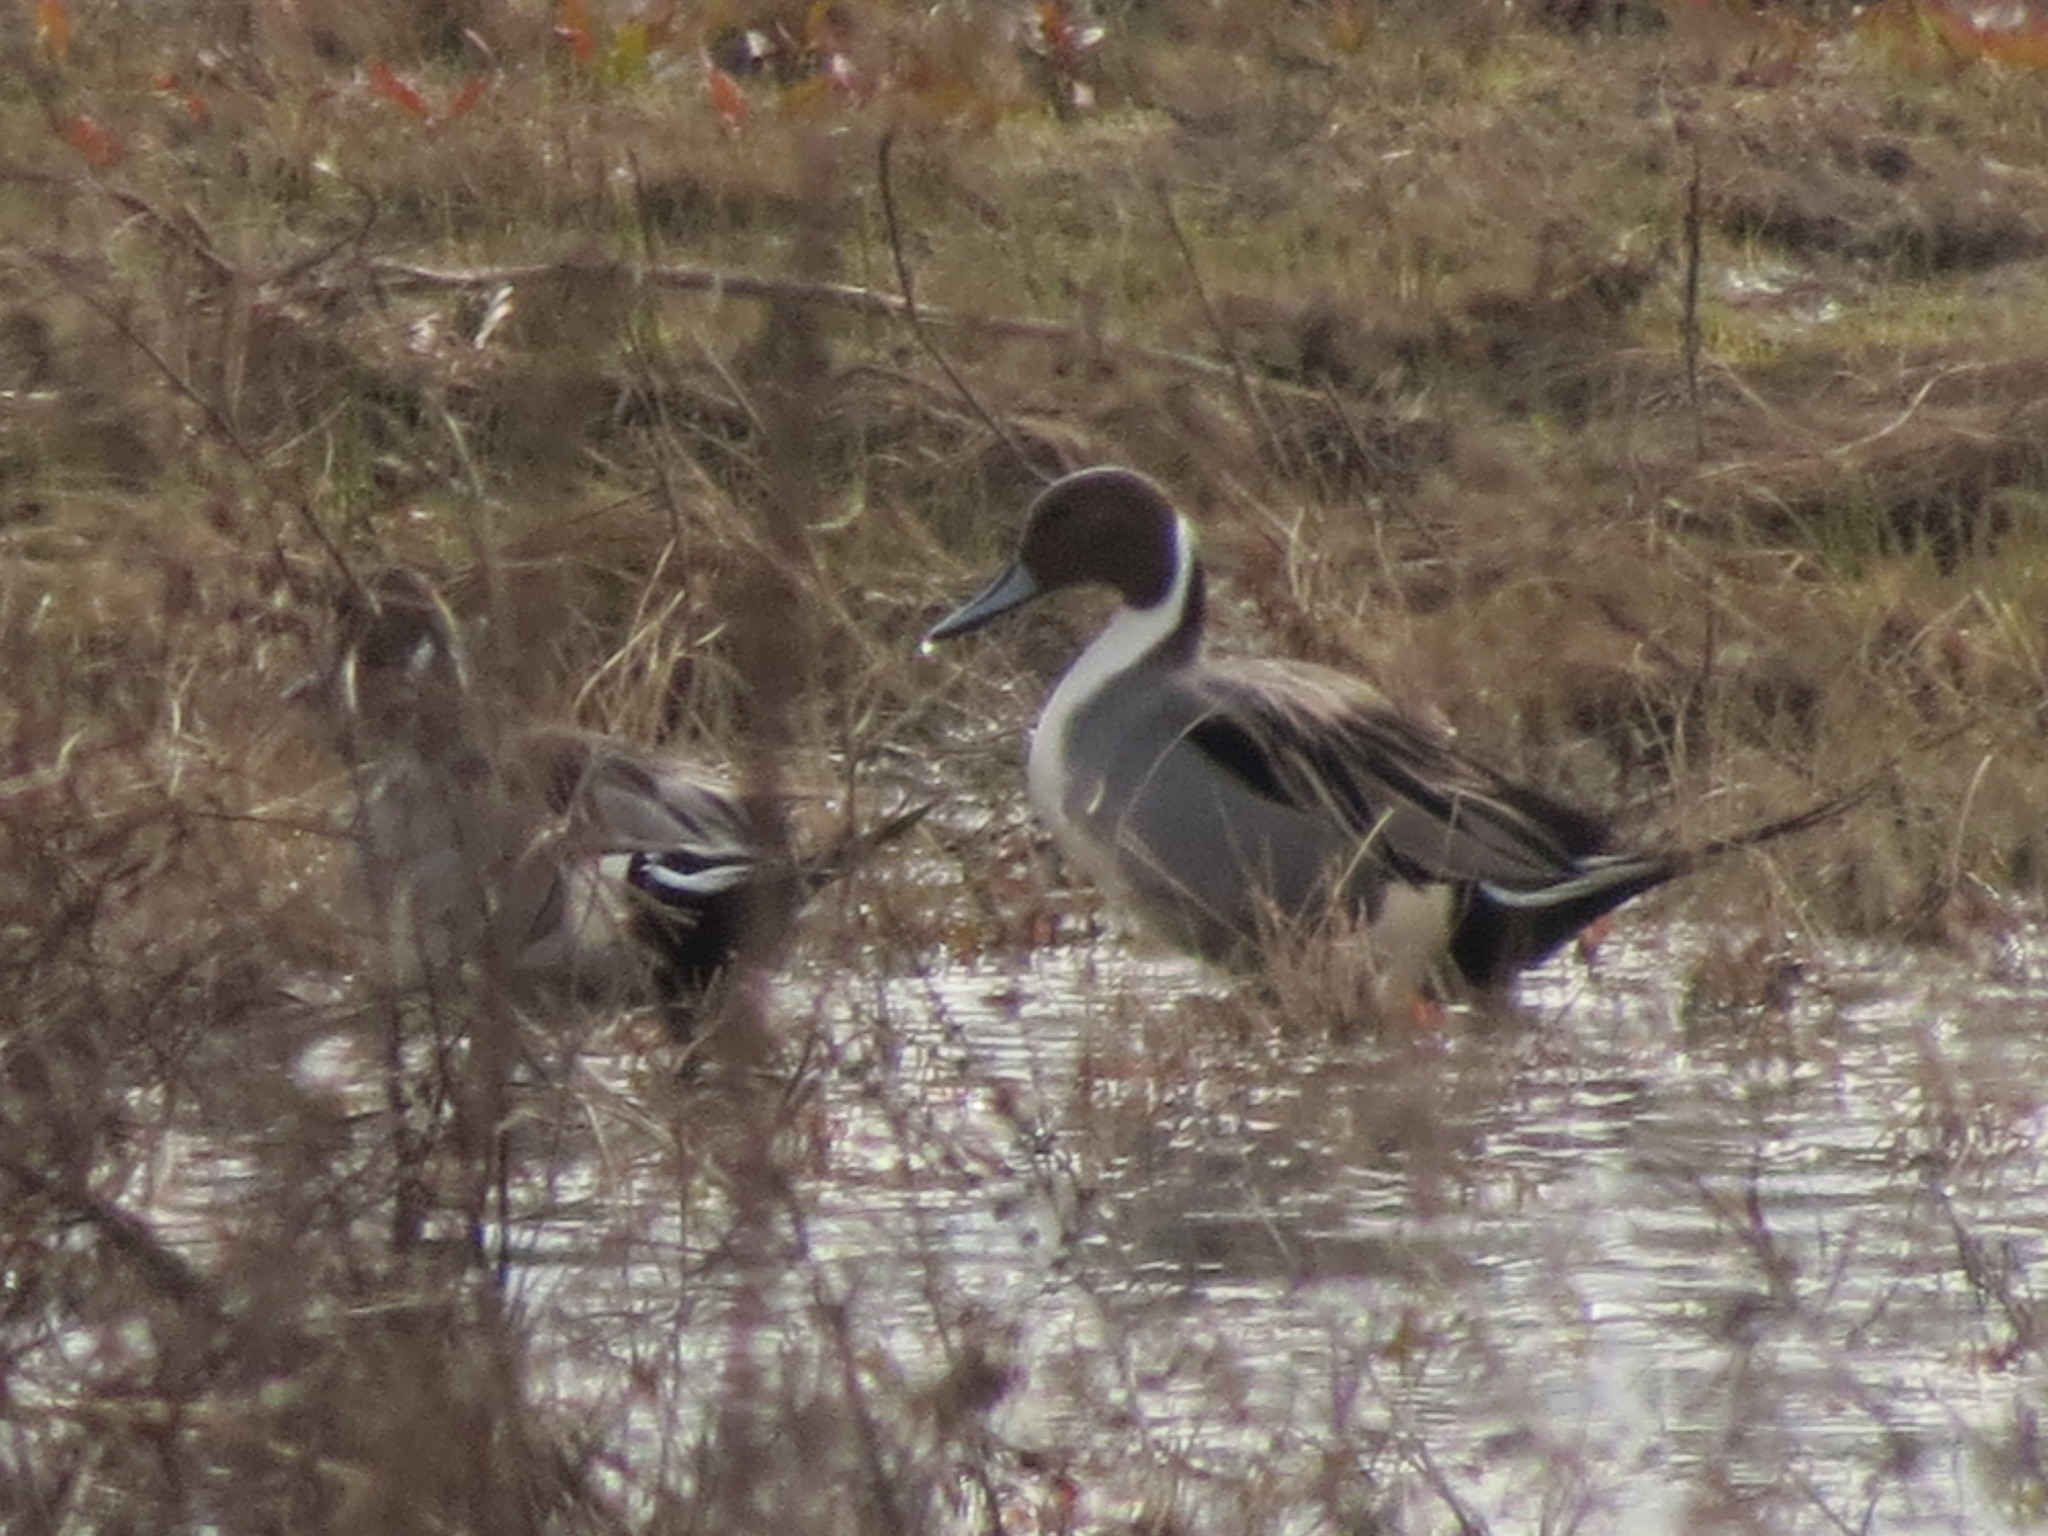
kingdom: Animalia
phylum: Chordata
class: Aves
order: Anseriformes
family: Anatidae
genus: Anas
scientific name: Anas acuta
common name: Northern pintail
